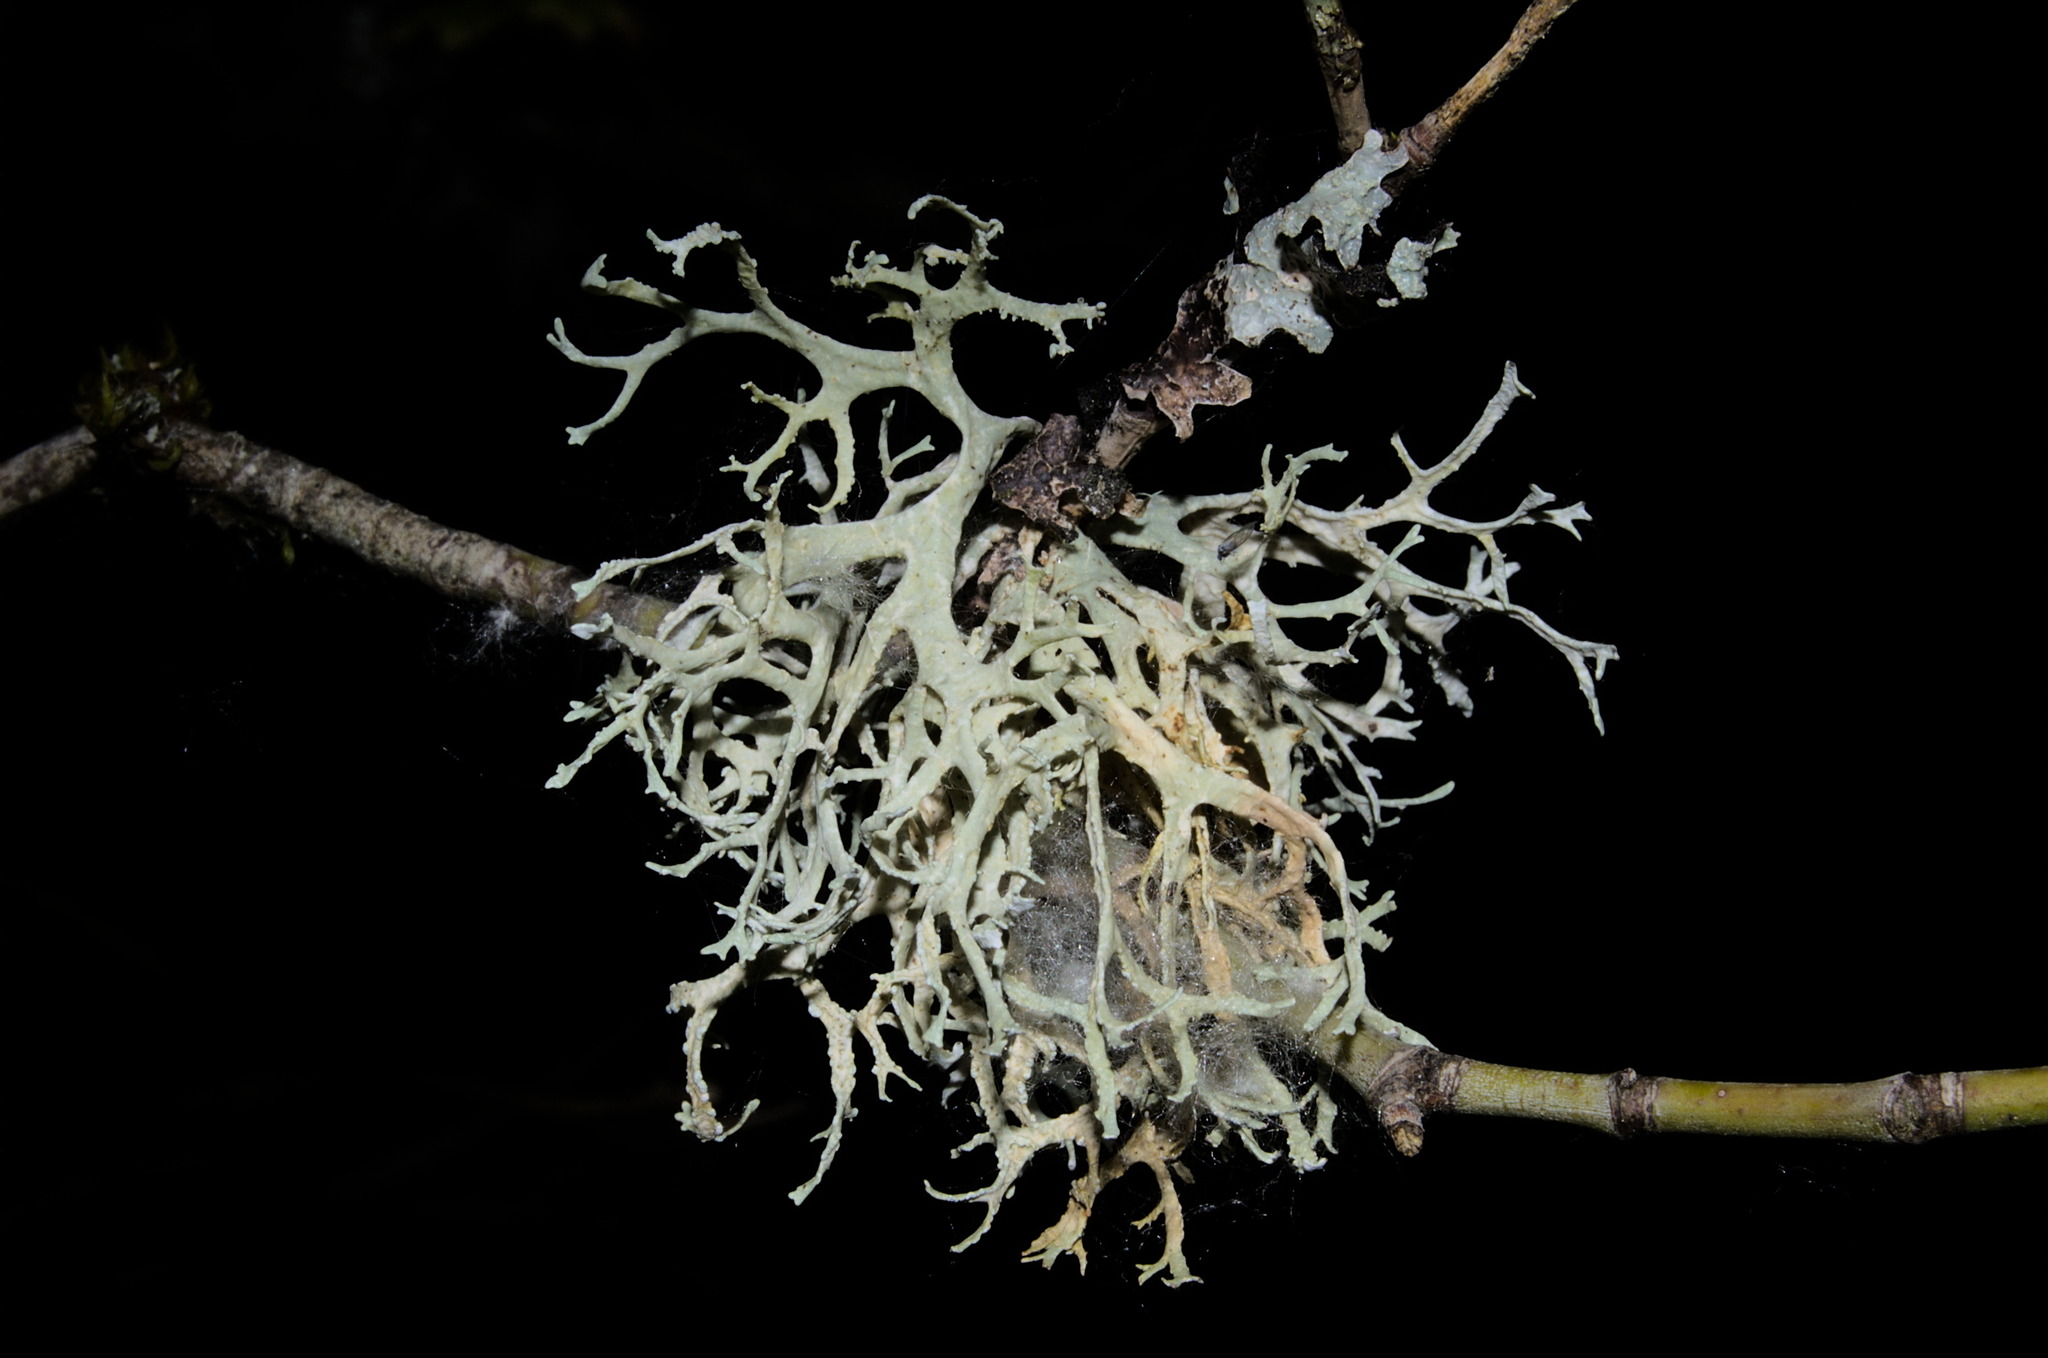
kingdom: Fungi
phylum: Ascomycota
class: Lecanoromycetes
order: Lecanorales
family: Parmeliaceae
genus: Evernia
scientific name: Evernia prunastri
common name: Oak moss
